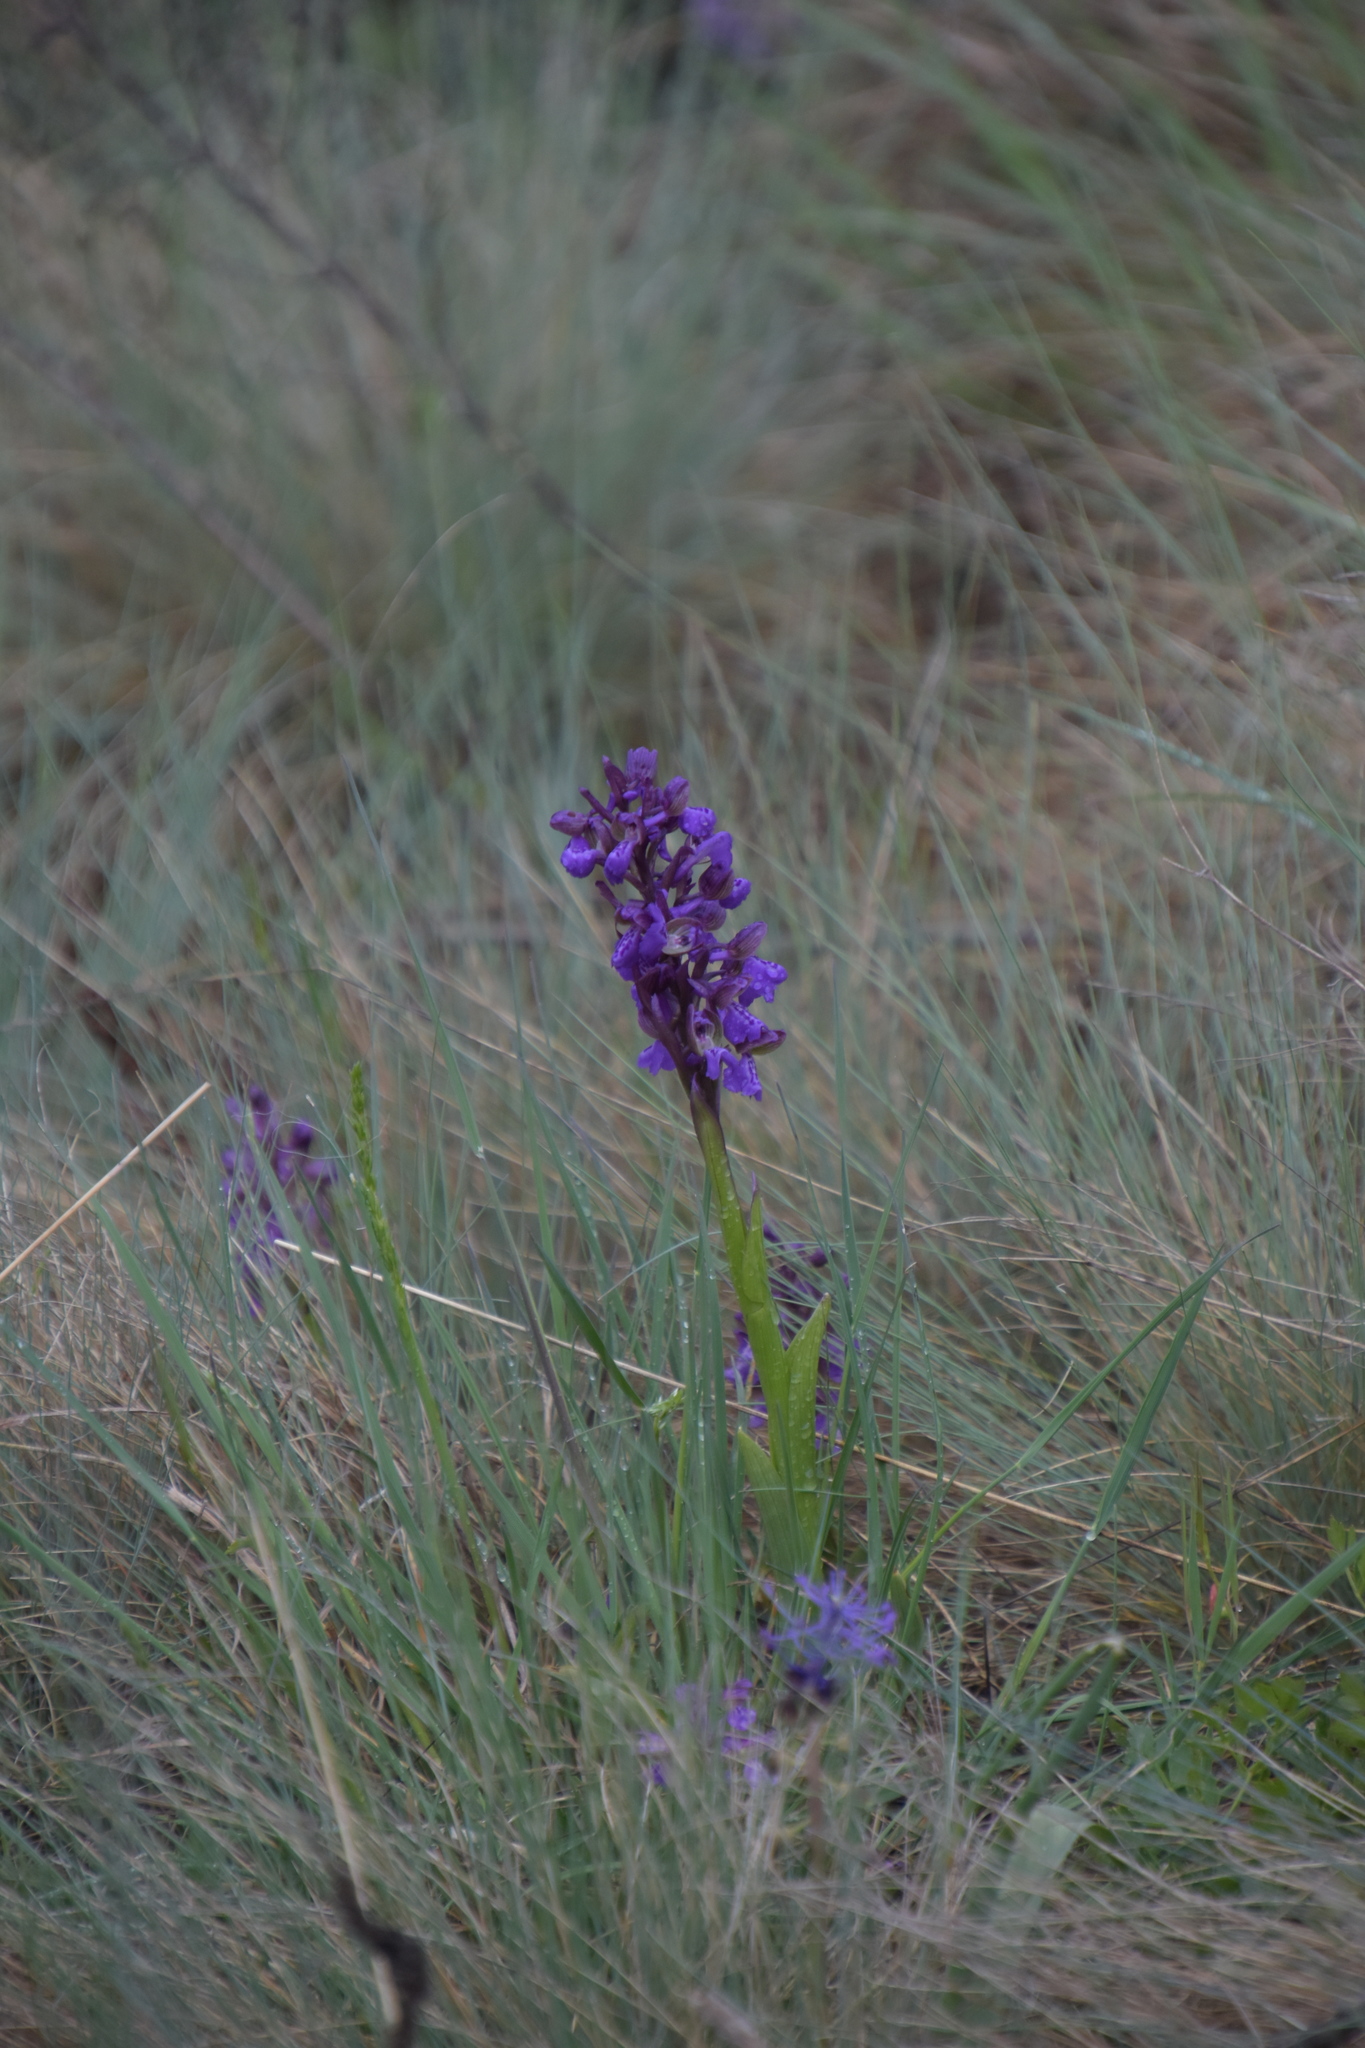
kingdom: Plantae
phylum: Tracheophyta
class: Liliopsida
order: Asparagales
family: Orchidaceae
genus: Anacamptis
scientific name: Anacamptis morio
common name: Green-winged orchid
